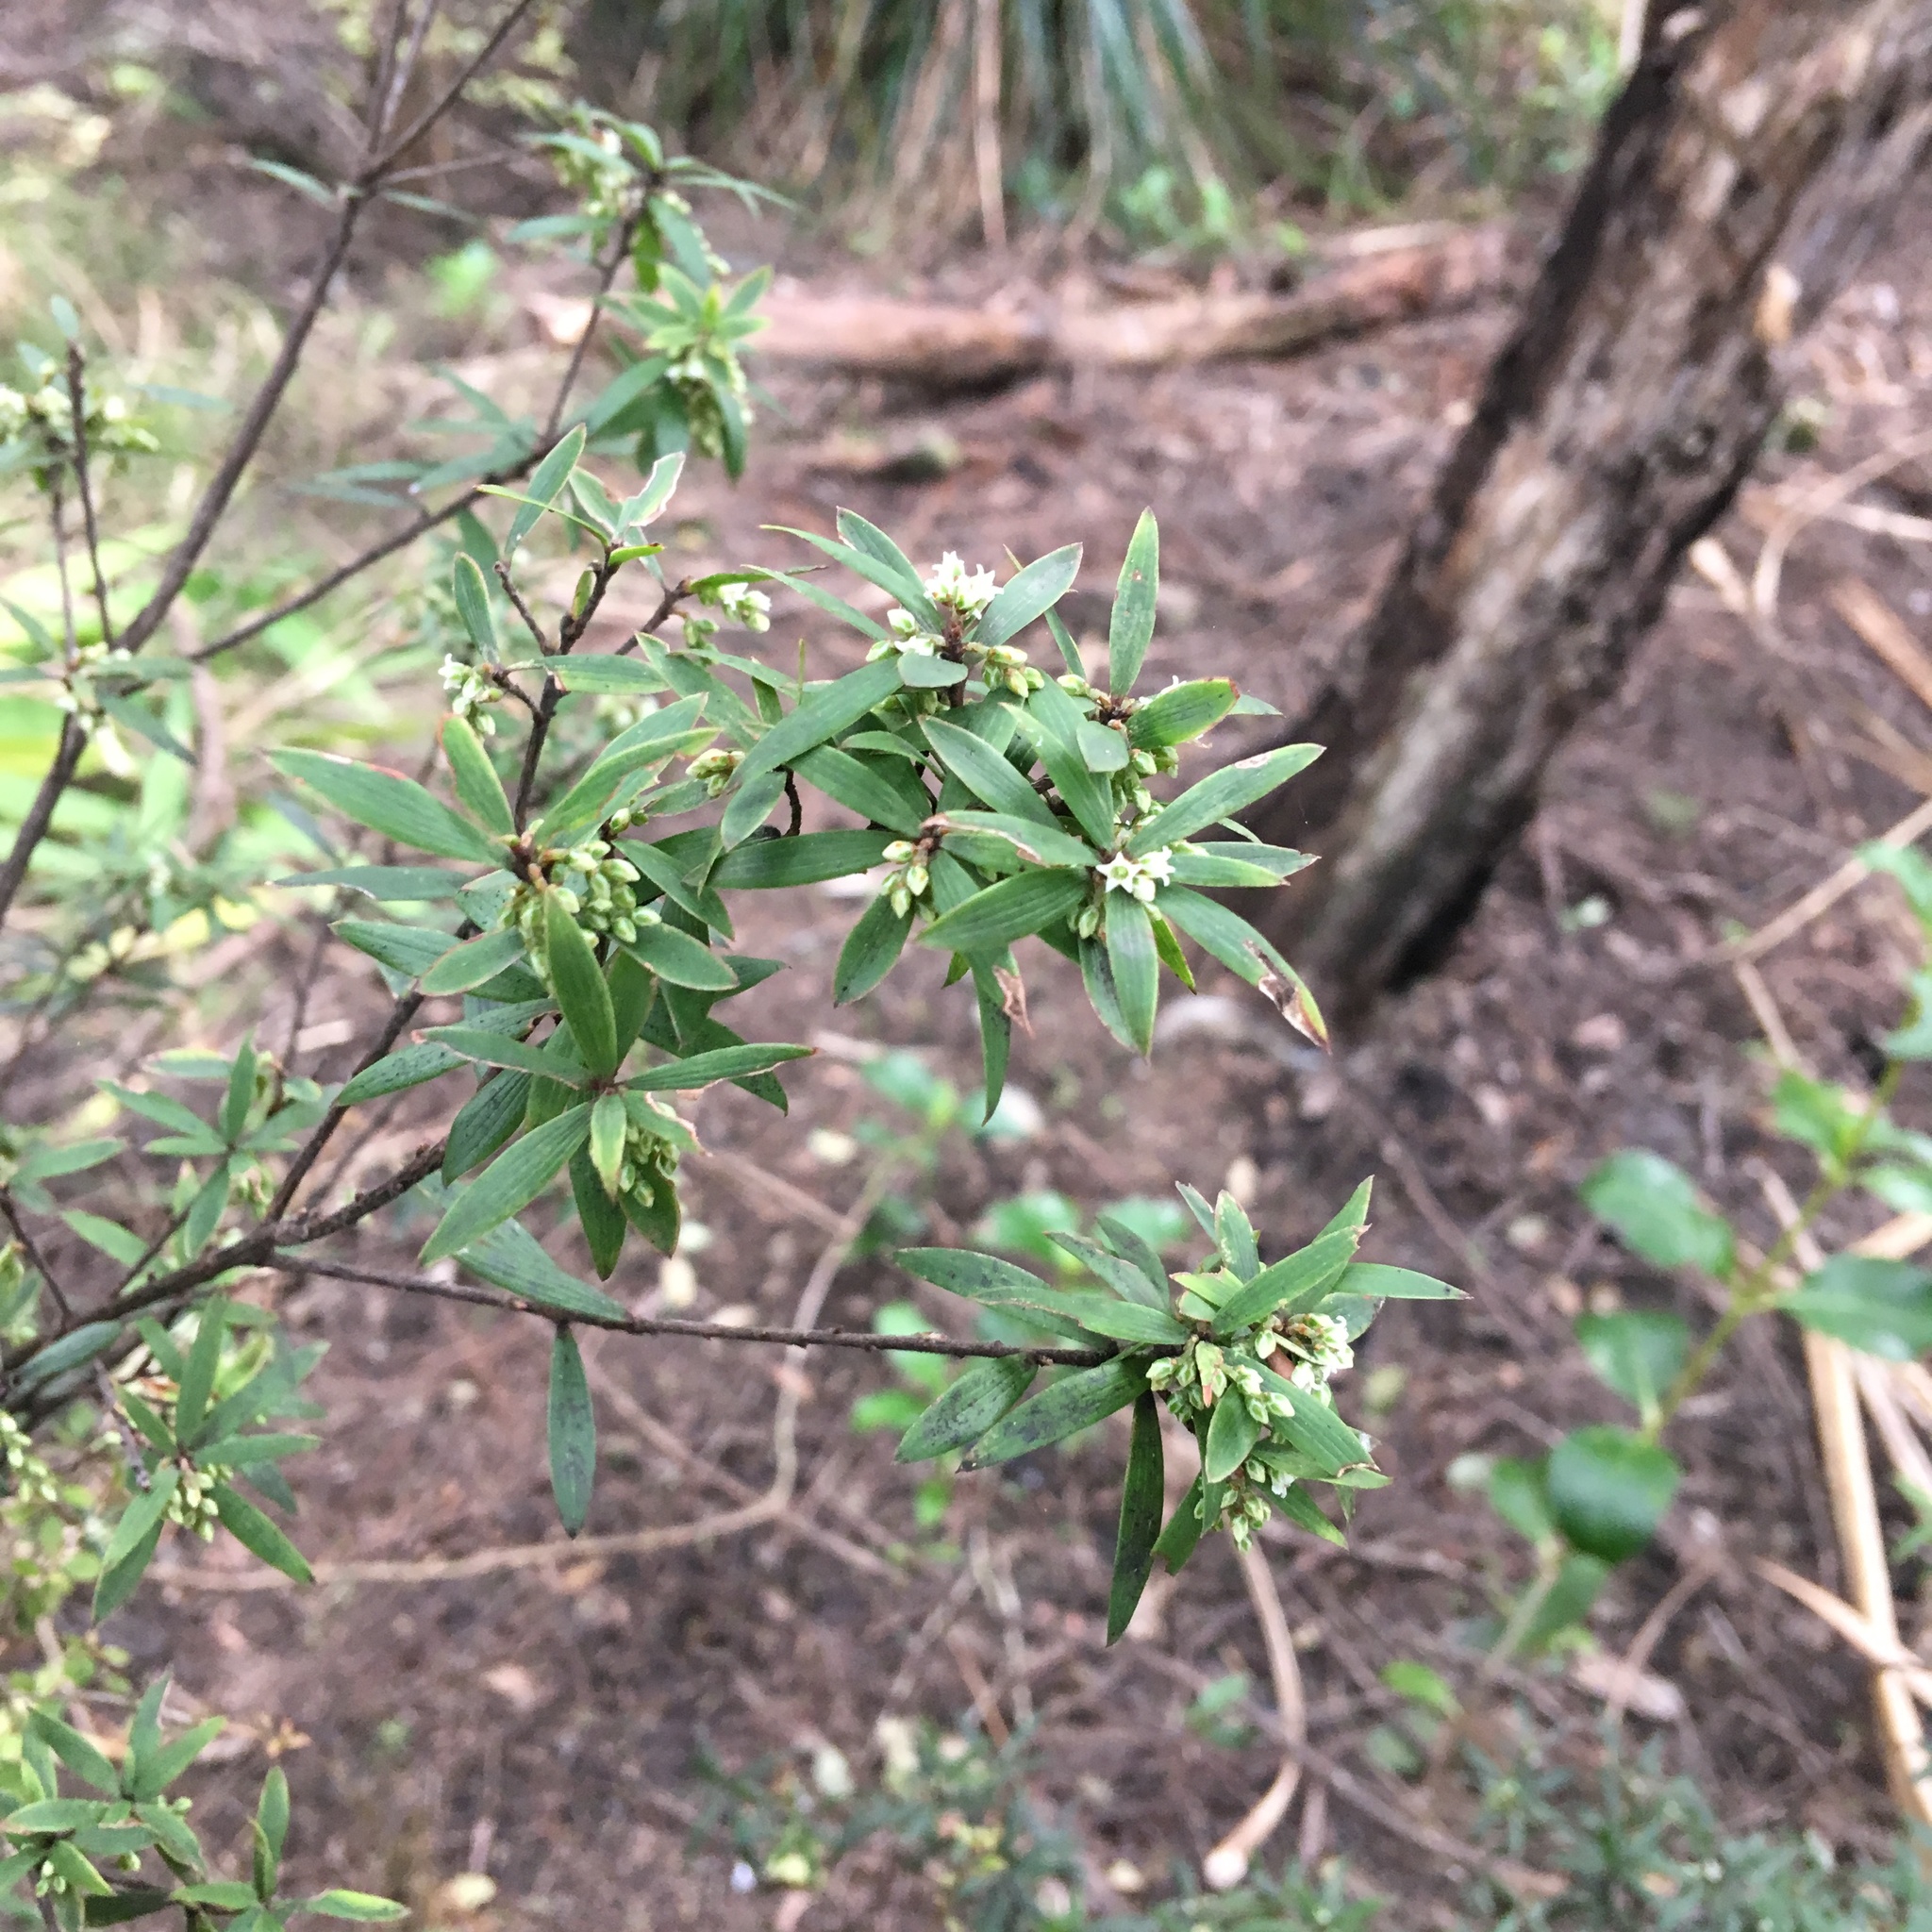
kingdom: Plantae
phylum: Tracheophyta
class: Magnoliopsida
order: Ericales
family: Ericaceae
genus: Leucopogon
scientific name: Leucopogon fasciculatus
